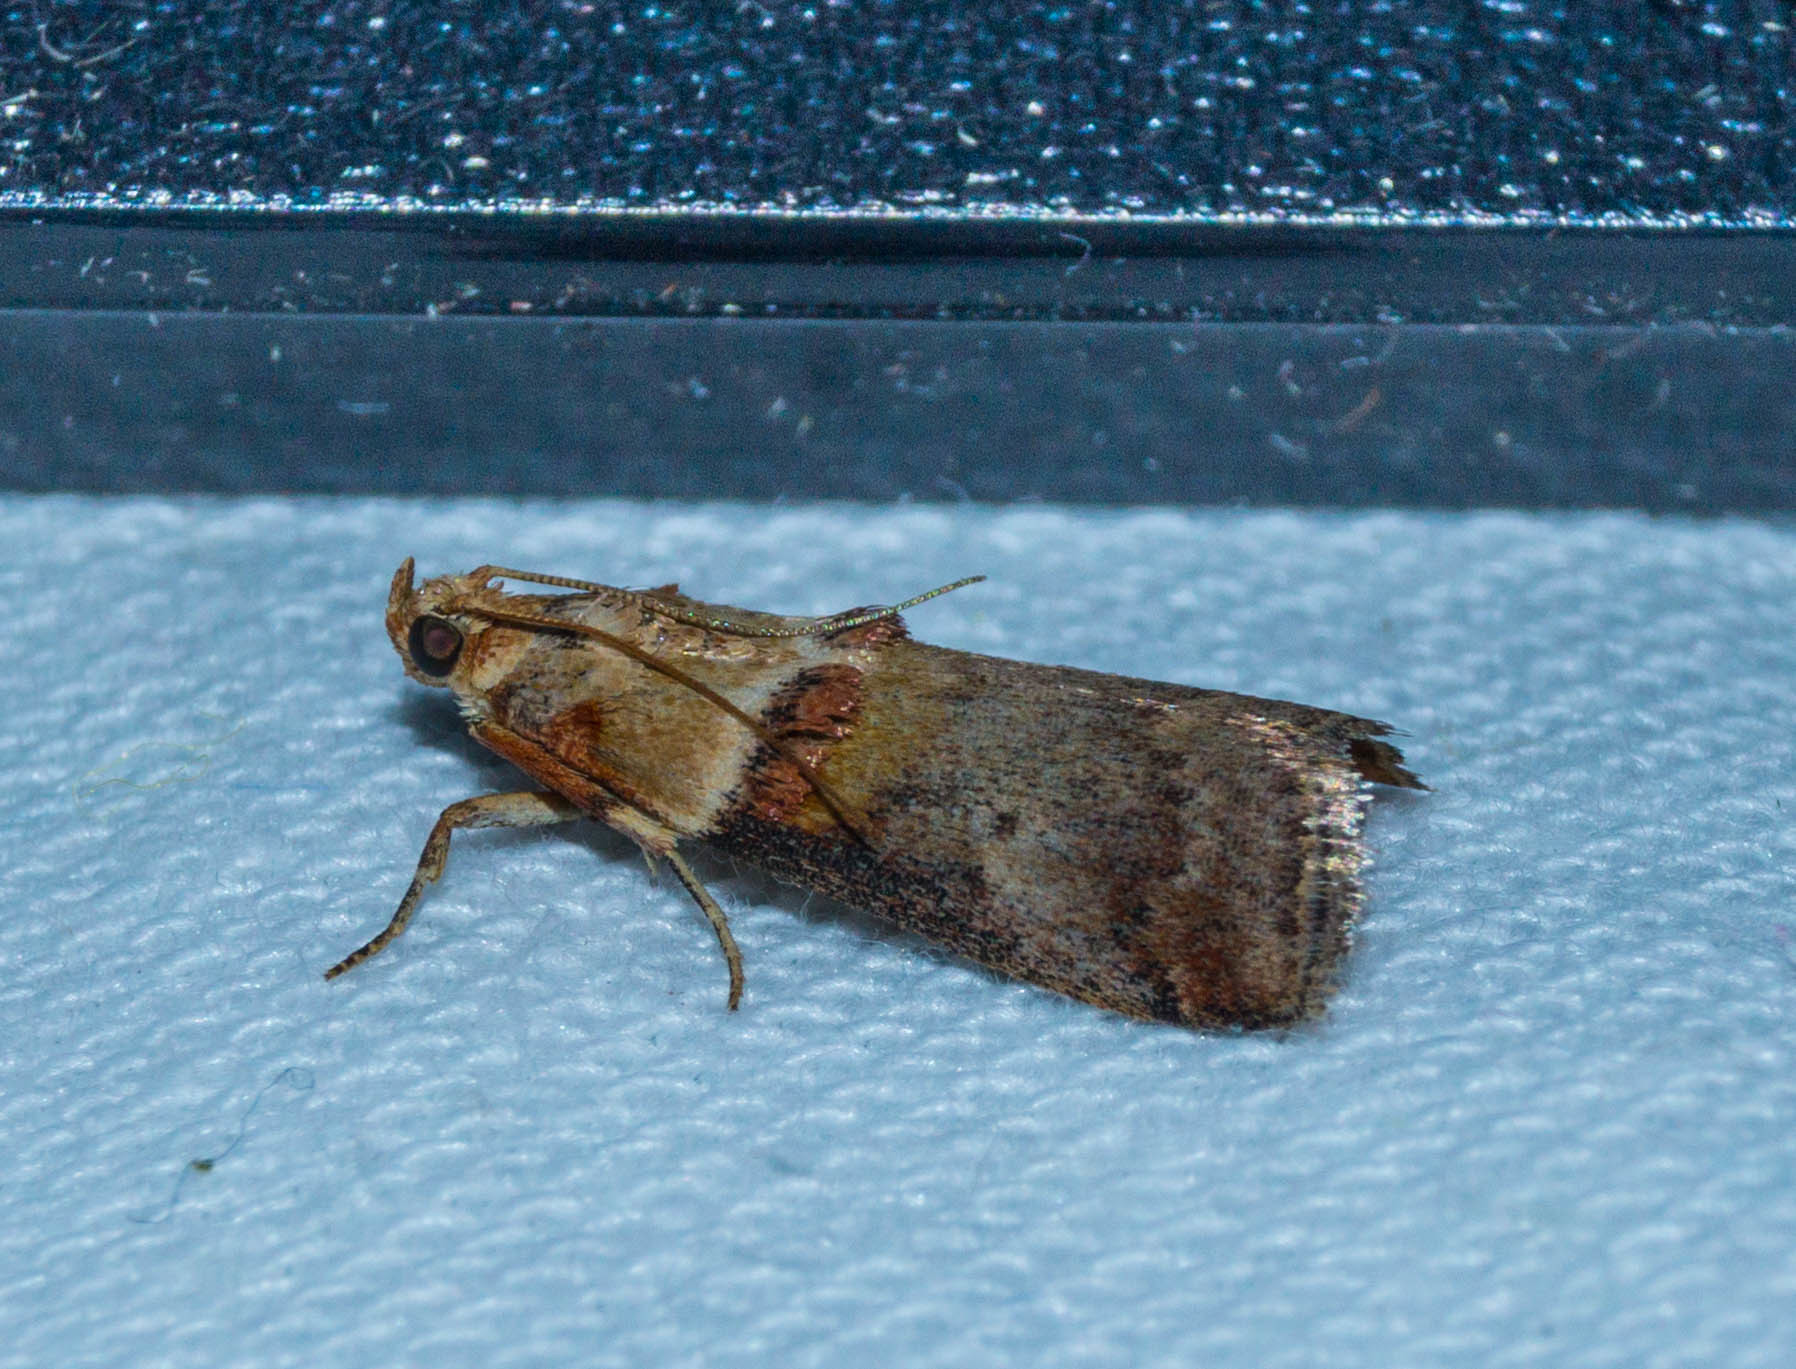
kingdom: Animalia
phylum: Arthropoda
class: Insecta
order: Lepidoptera
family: Pyralidae
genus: Acrobasis
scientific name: Acrobasis tumidana
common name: Scarce oak knot-horn
